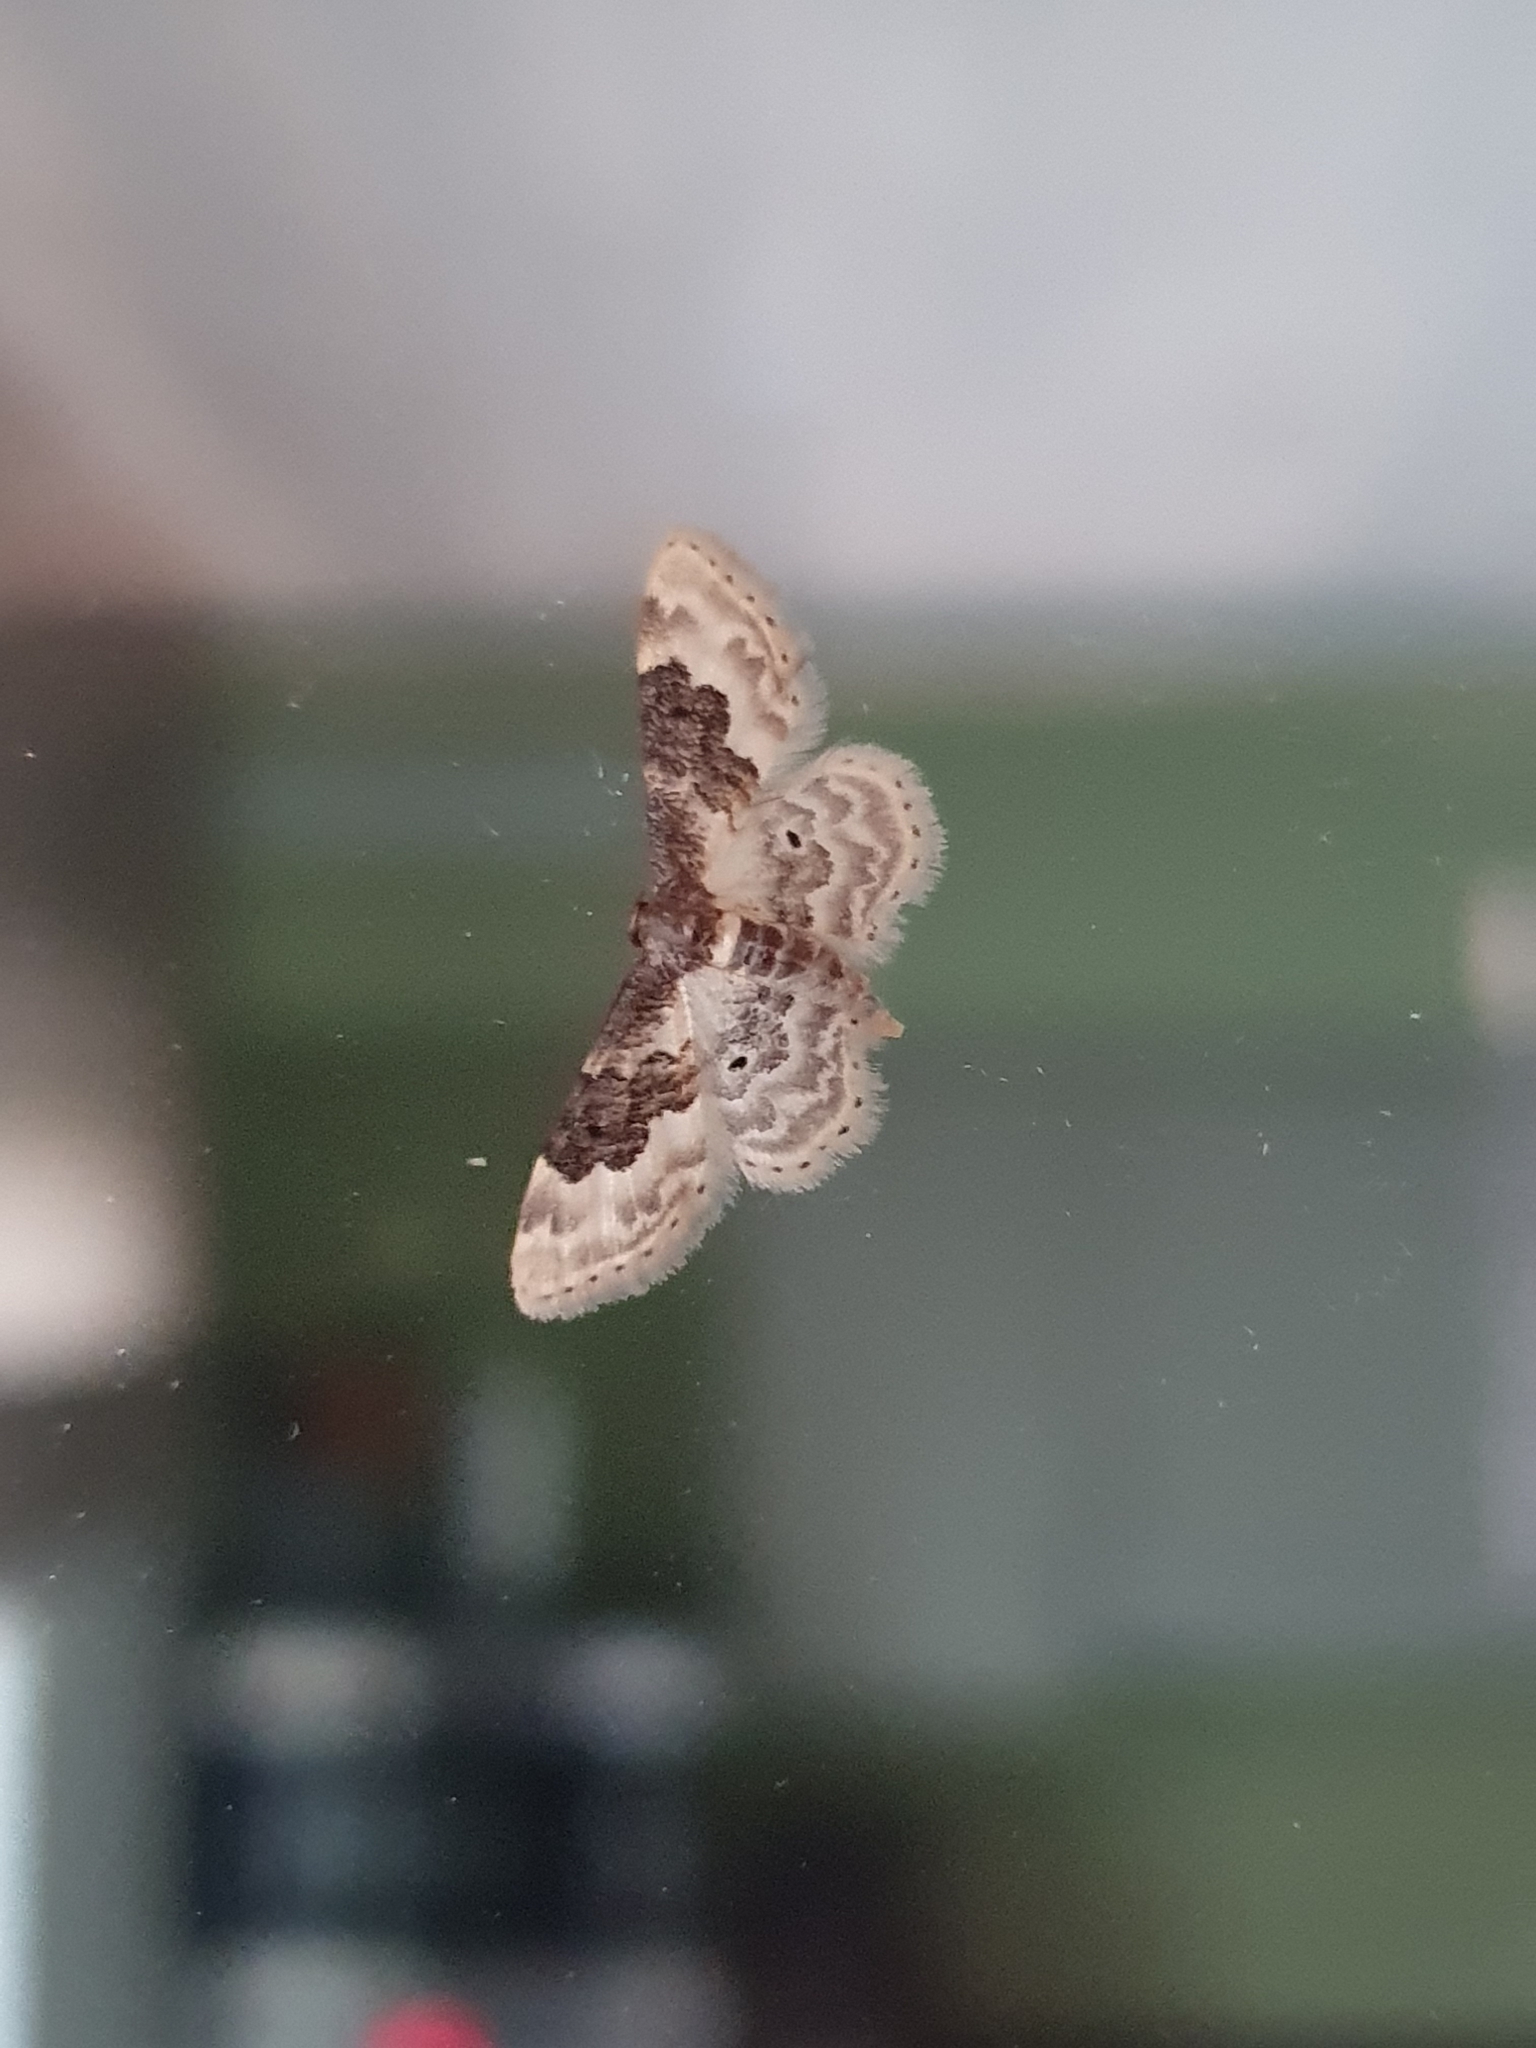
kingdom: Animalia
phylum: Arthropoda
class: Insecta
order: Lepidoptera
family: Geometridae
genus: Idaea
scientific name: Idaea rusticata
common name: Least carpet
